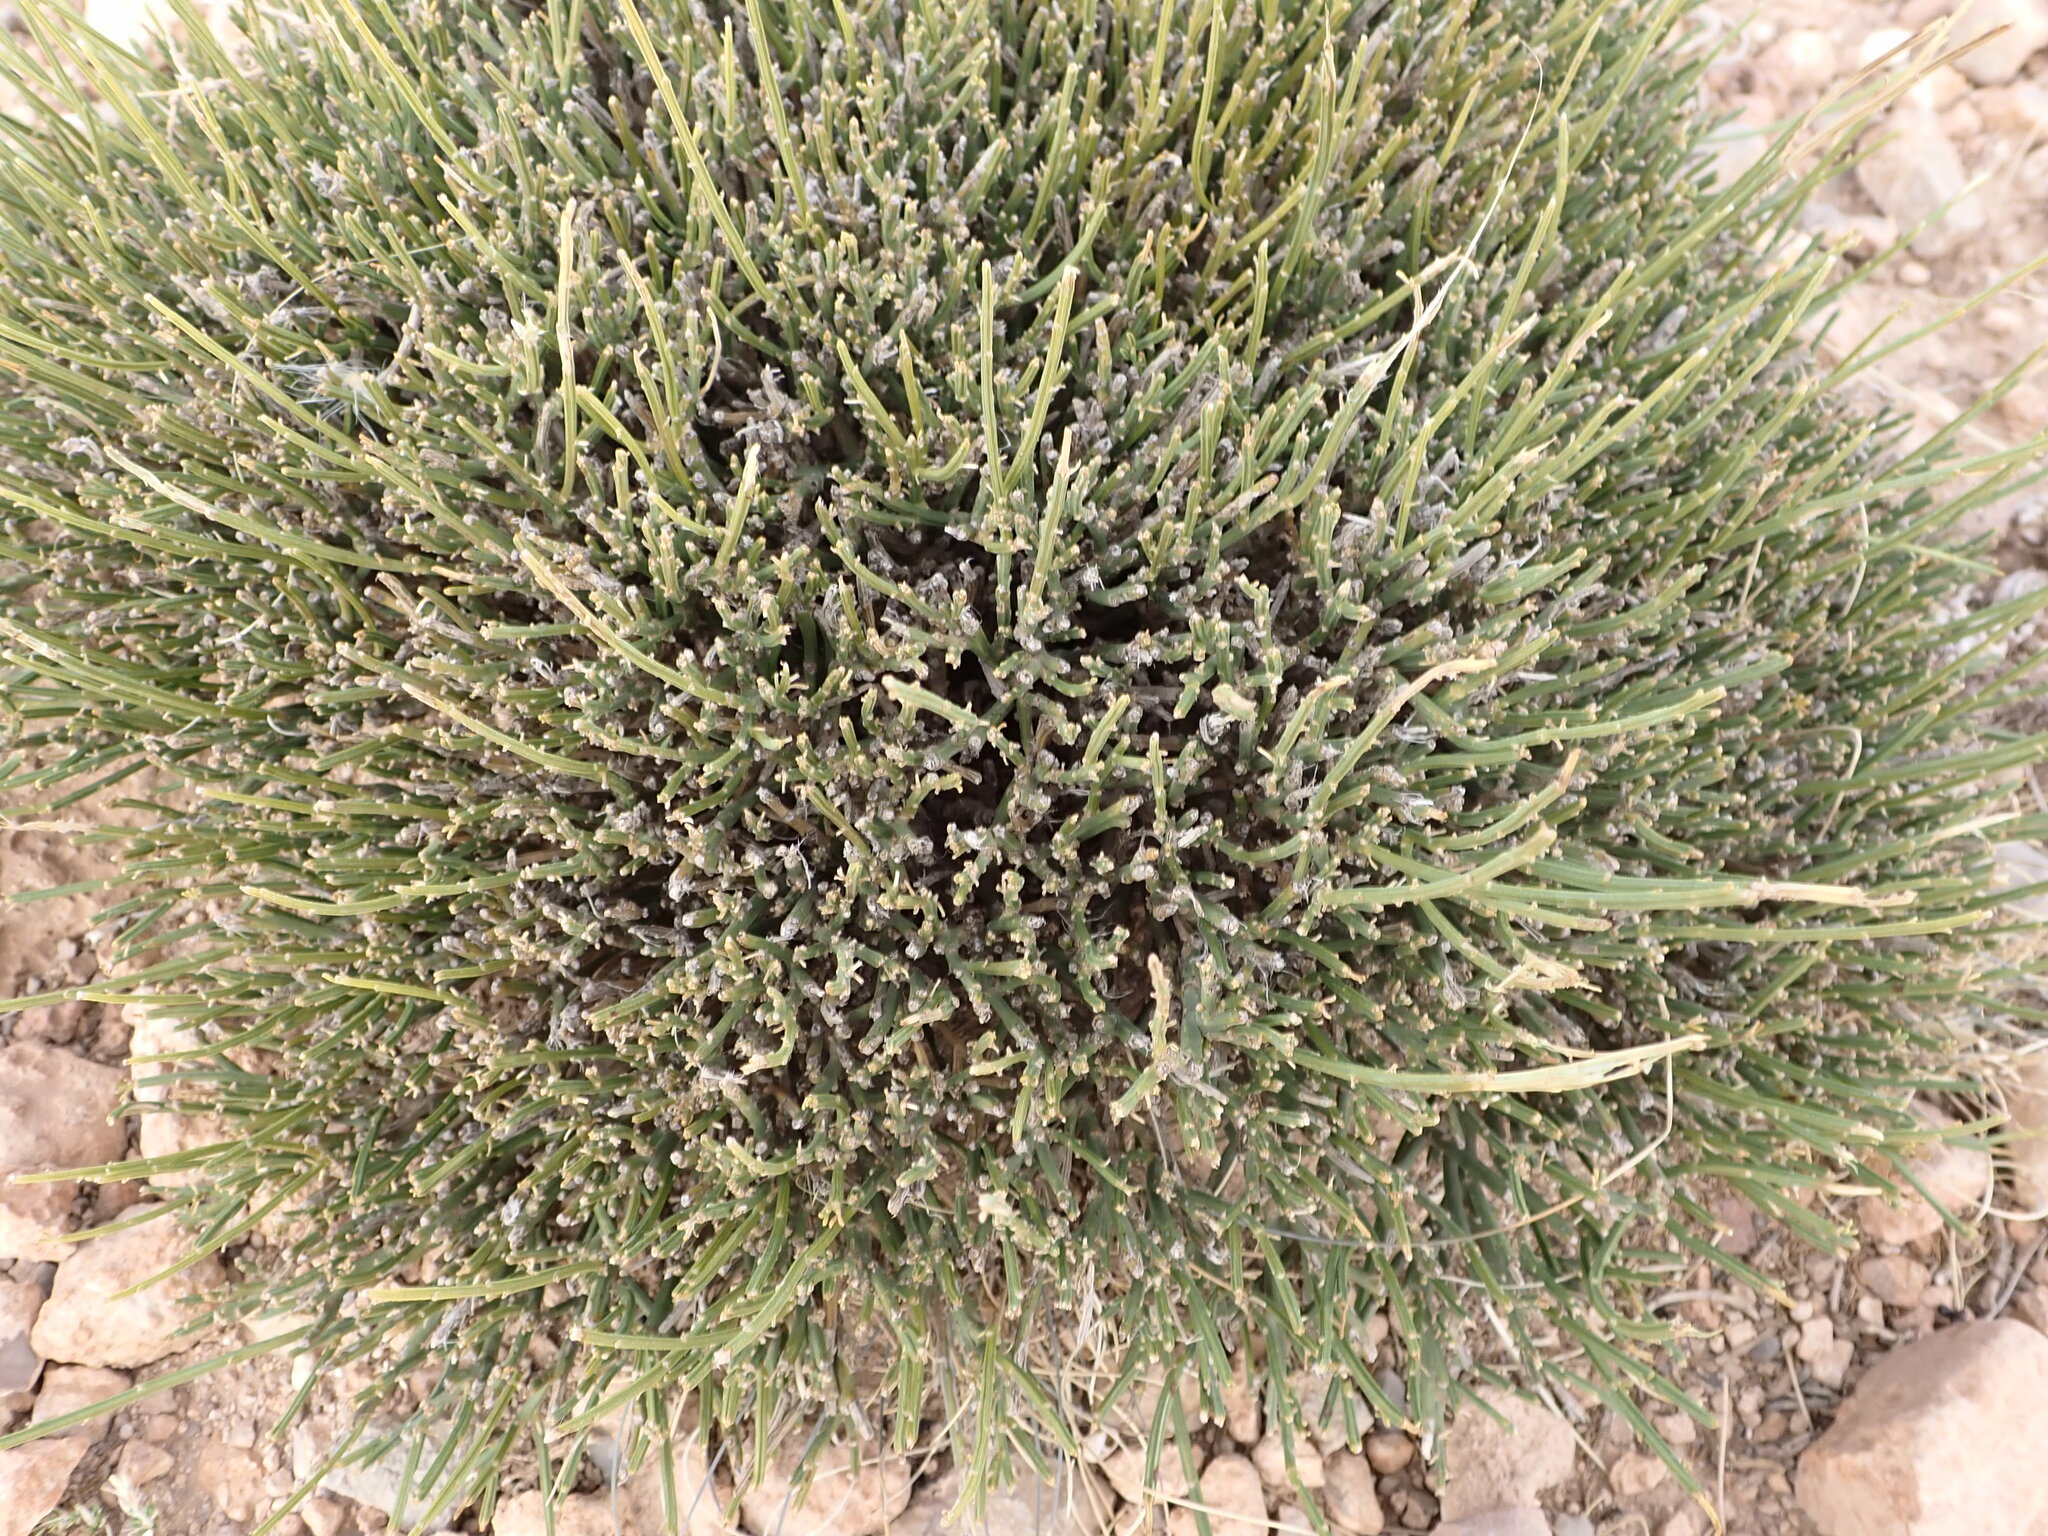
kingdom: Plantae
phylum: Tracheophyta
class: Magnoliopsida
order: Fabales
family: Fabaceae
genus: Erinacea
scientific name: Erinacea anthyllis
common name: Hedgehog-broom
